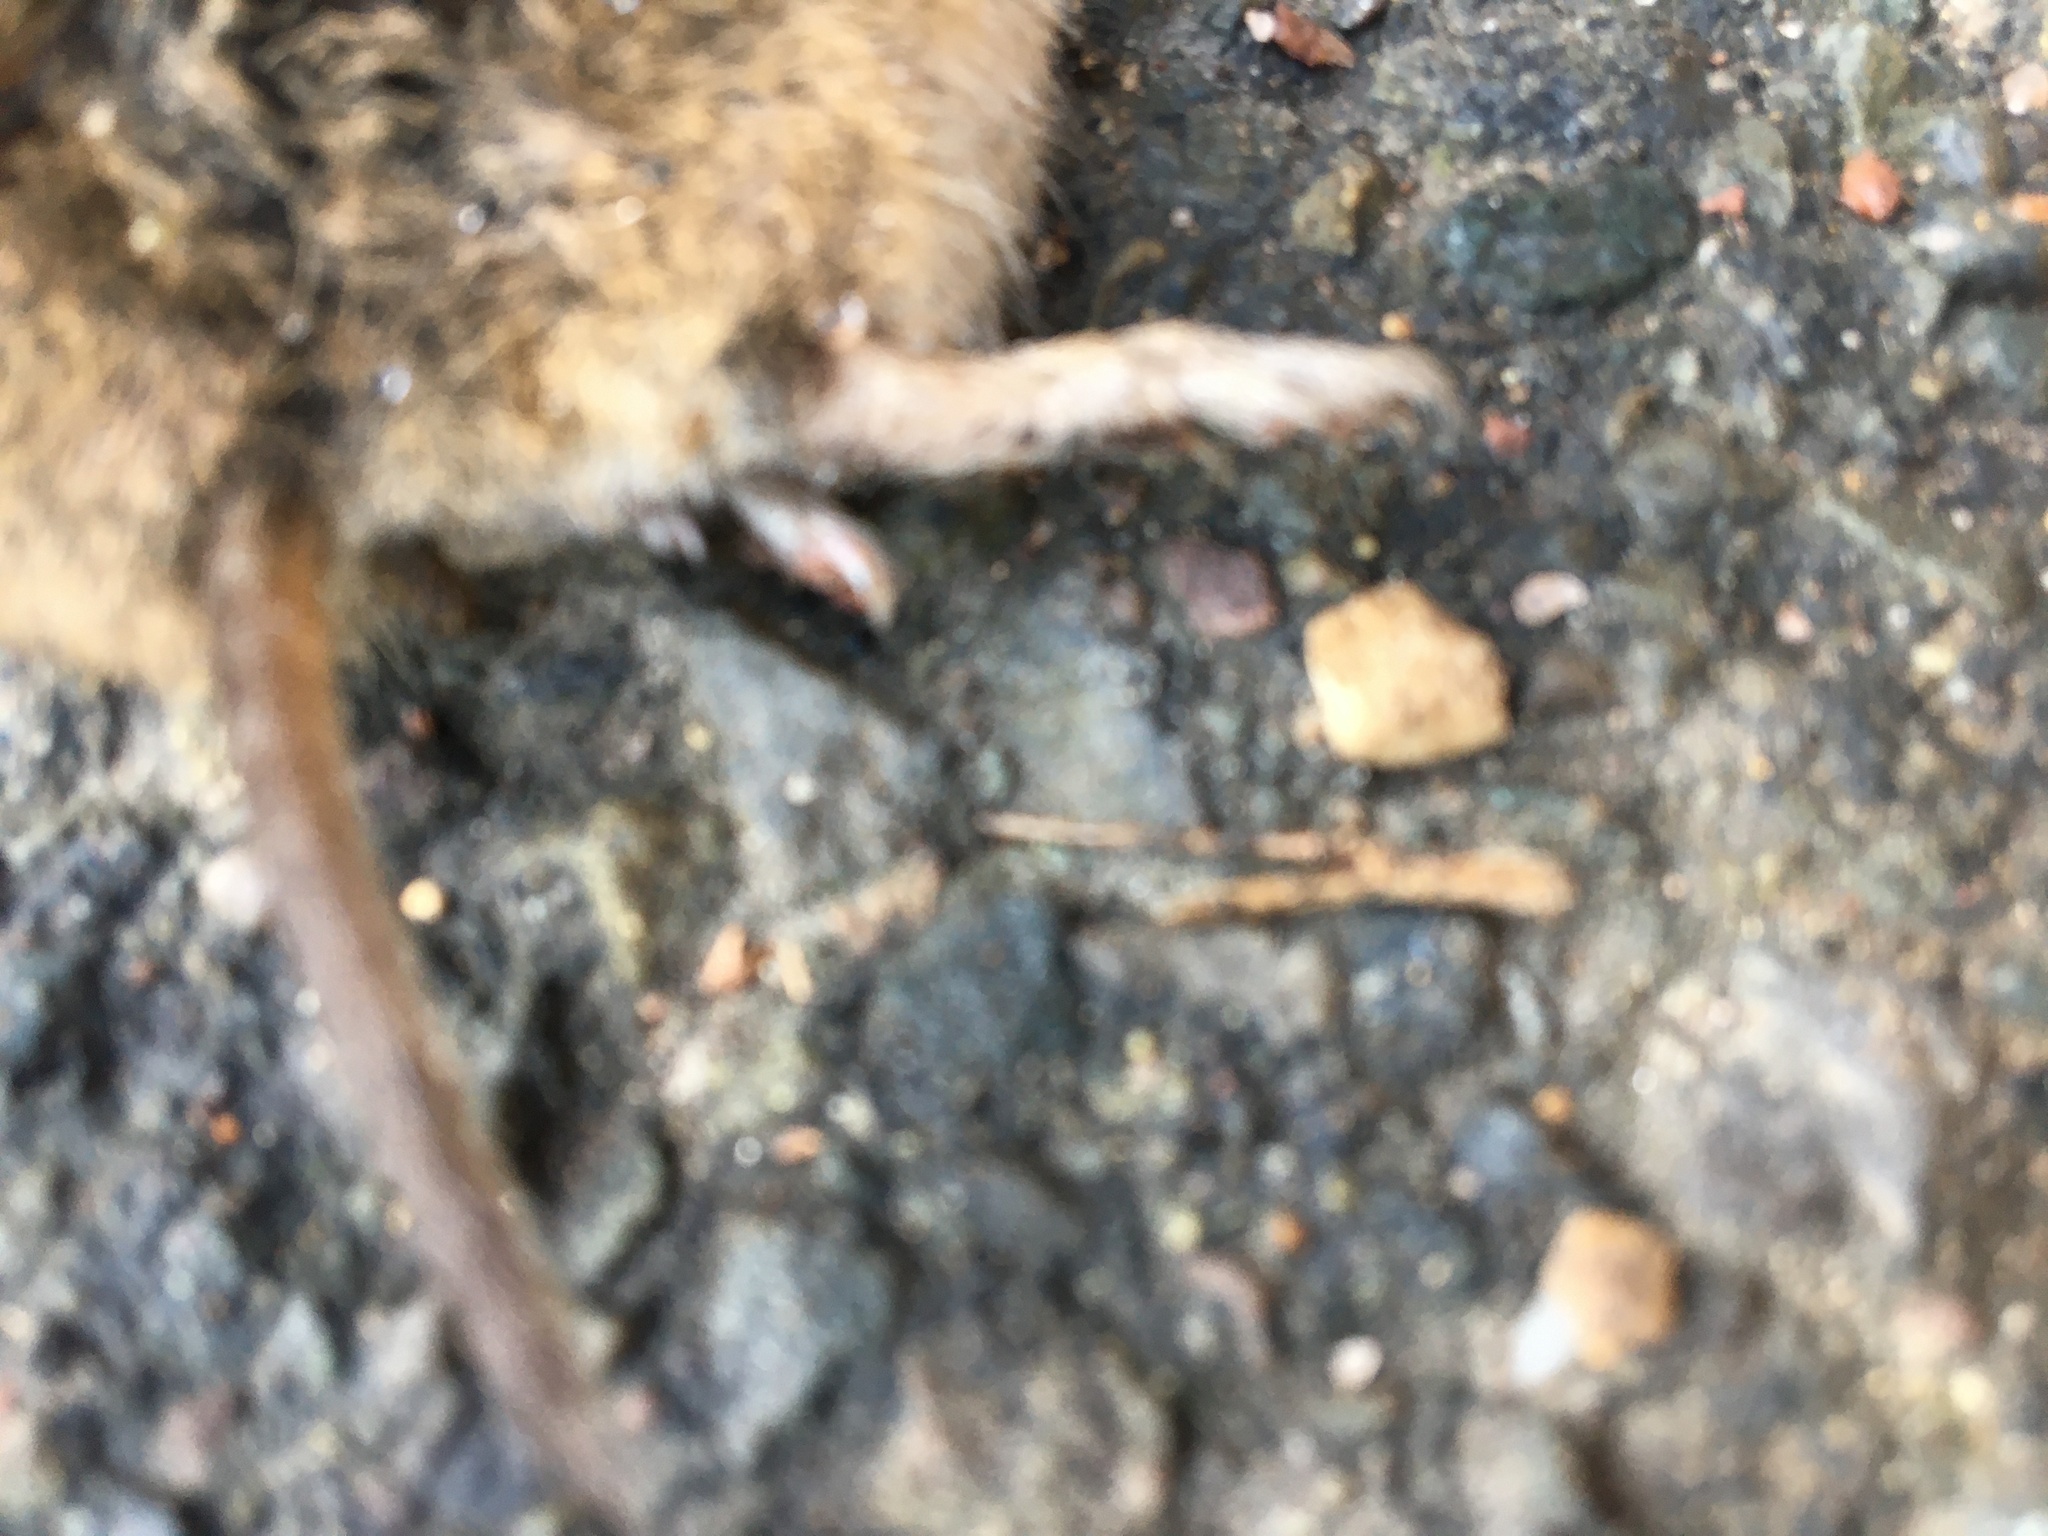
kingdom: Animalia
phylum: Chordata
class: Mammalia
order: Rodentia
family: Cricetidae
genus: Microtus
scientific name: Microtus agrestis
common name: Field vole
